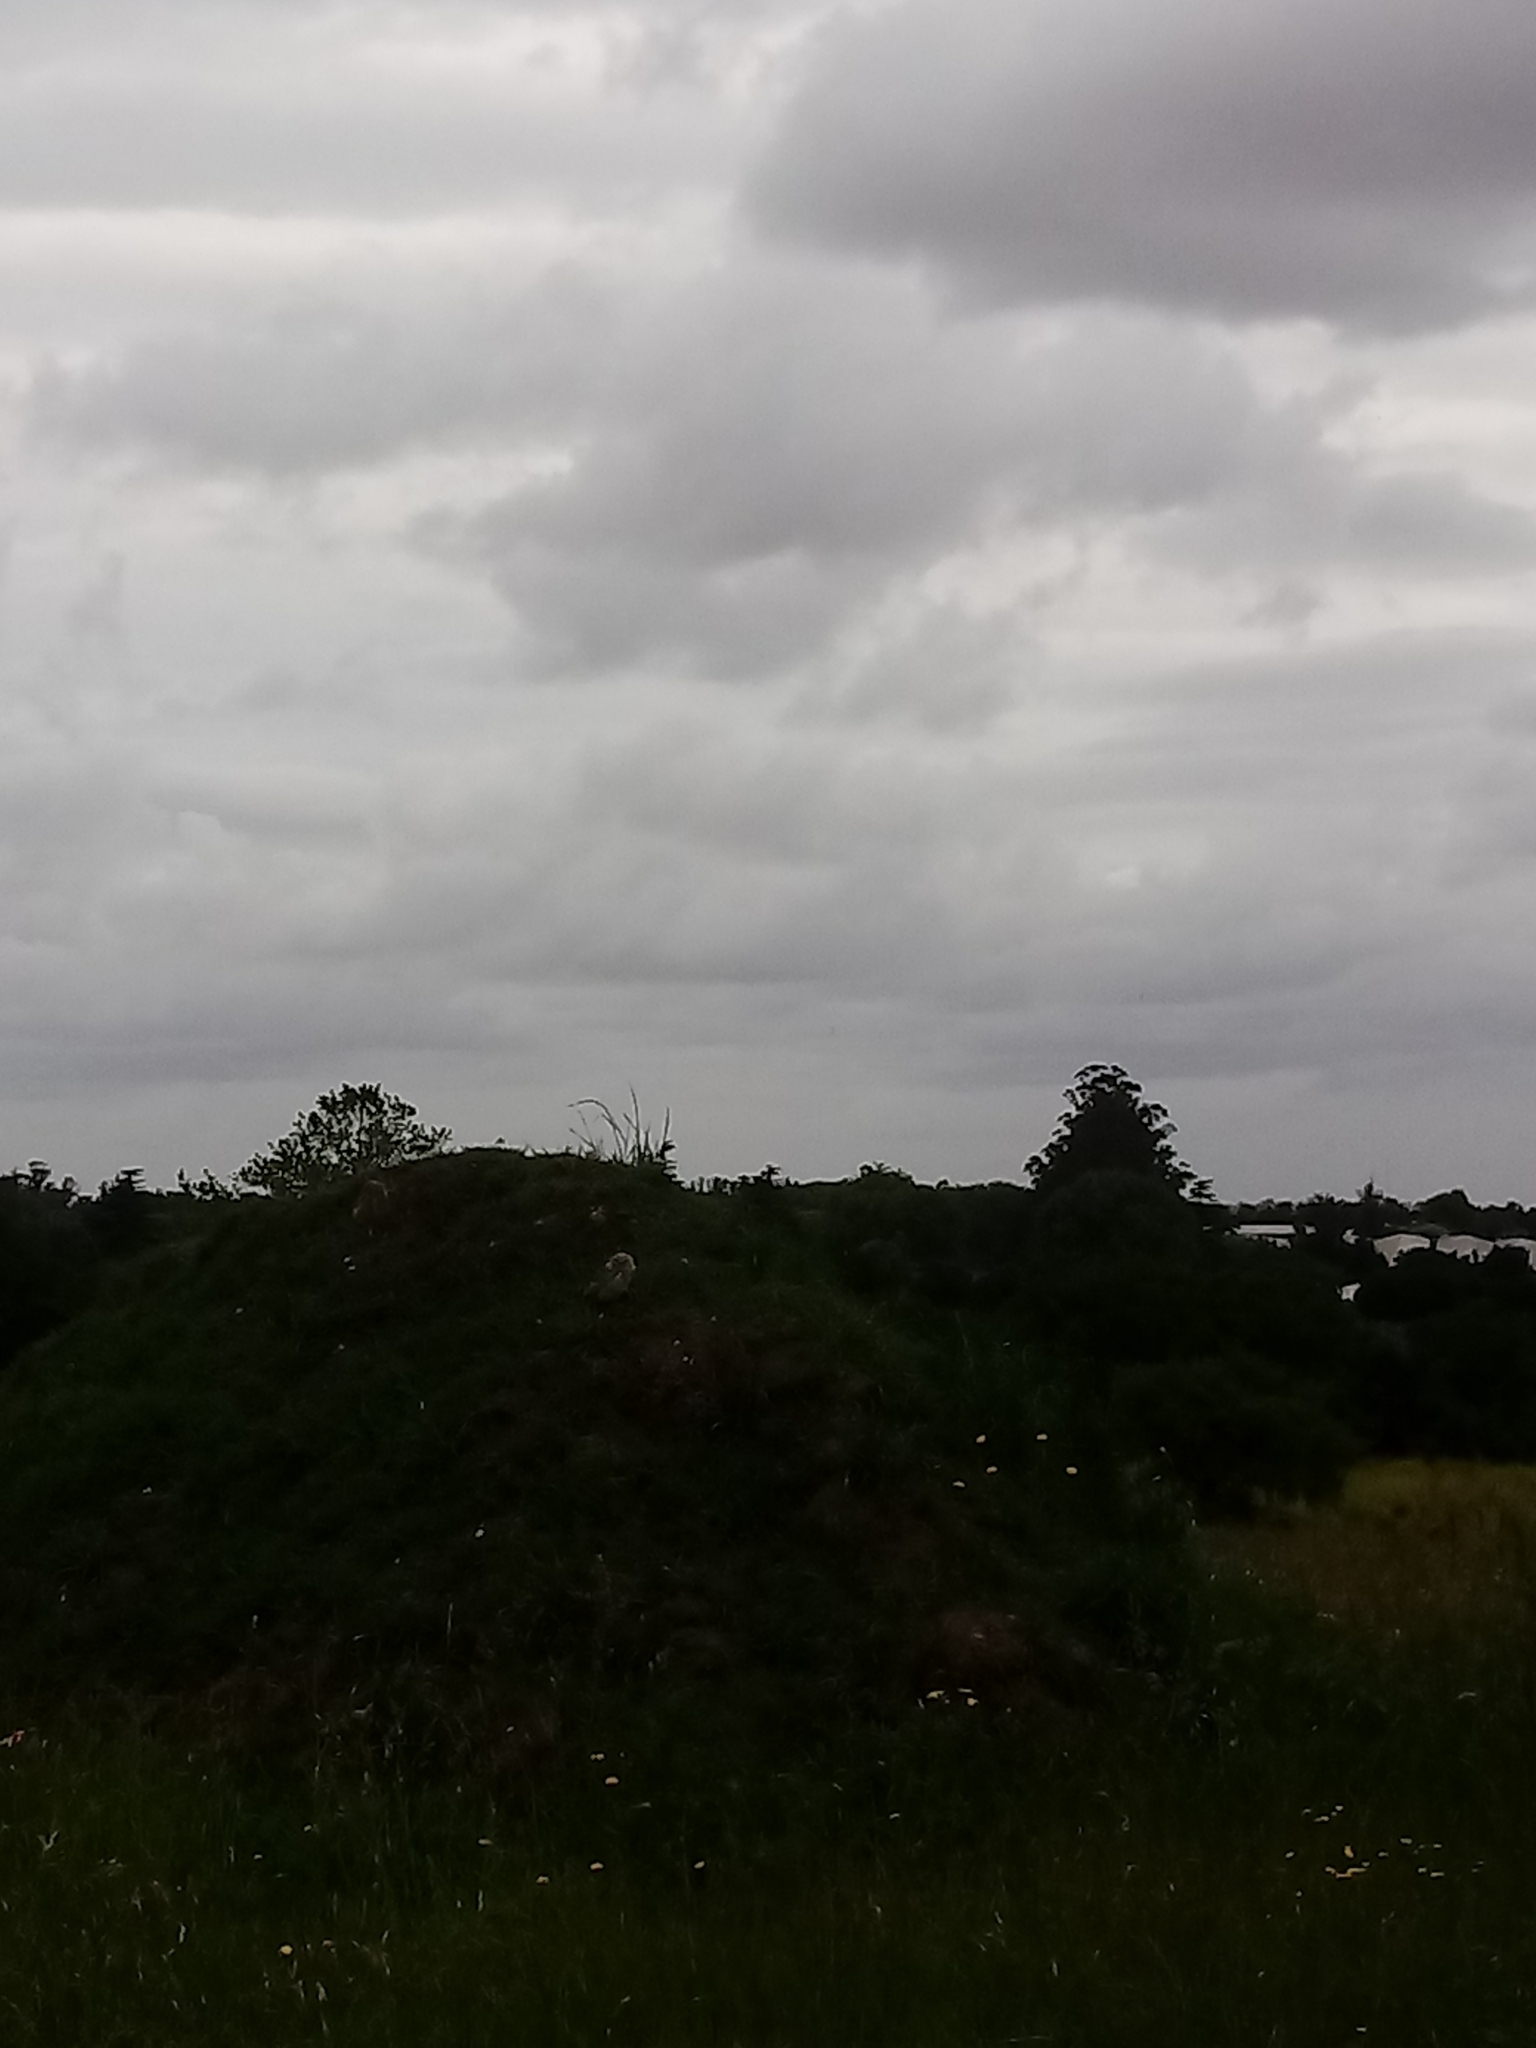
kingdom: Animalia
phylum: Chordata
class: Aves
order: Strigiformes
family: Strigidae
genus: Athene
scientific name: Athene cunicularia
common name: Burrowing owl
